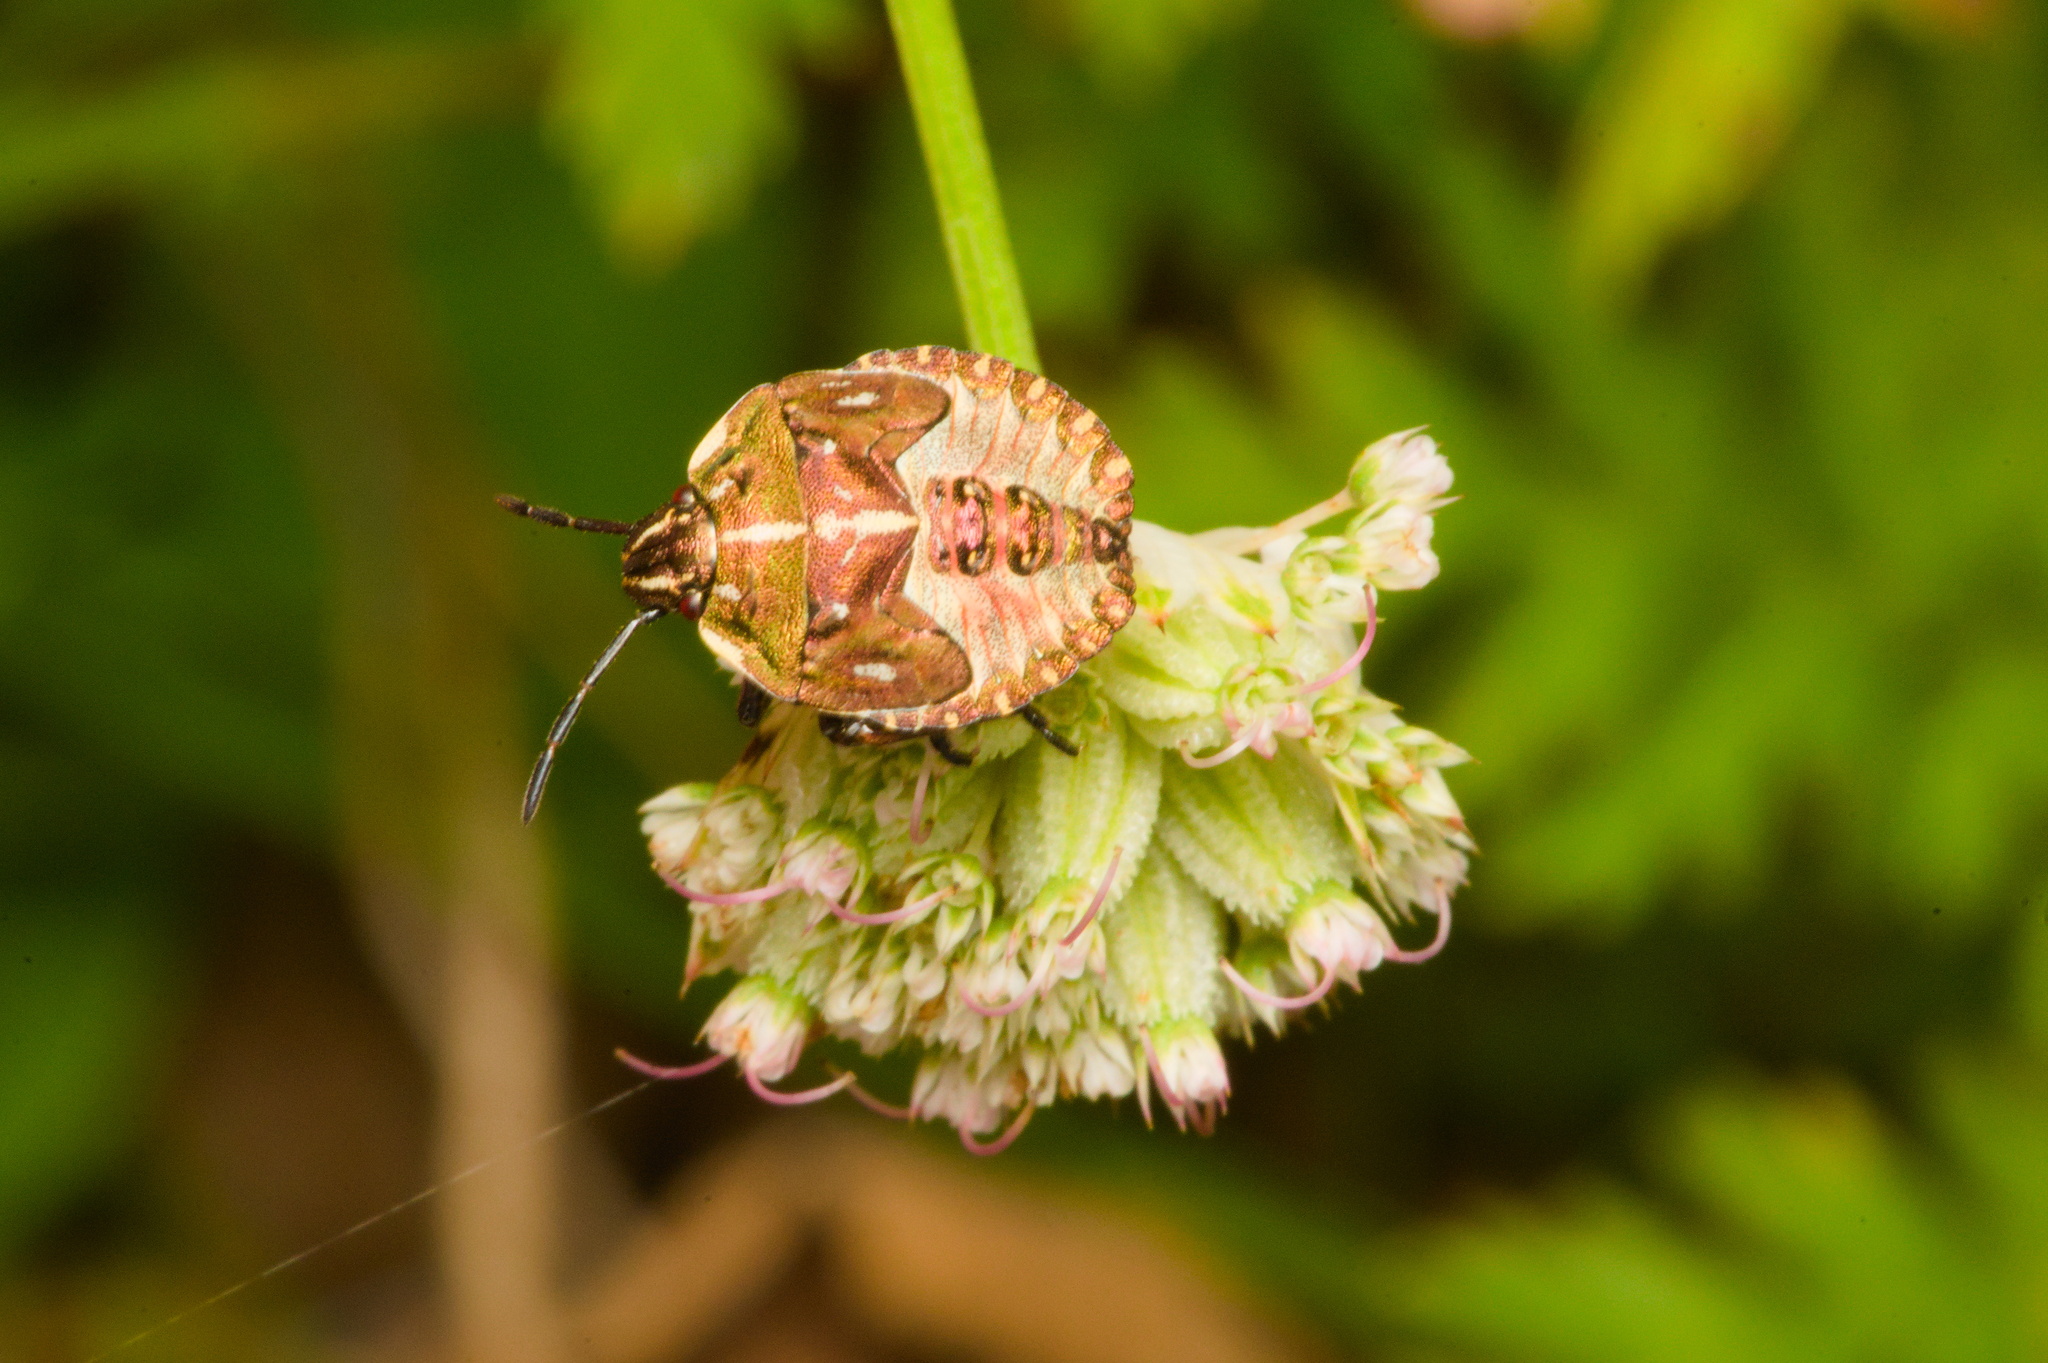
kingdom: Animalia
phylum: Arthropoda
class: Insecta
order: Hemiptera
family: Pentatomidae
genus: Carpocoris
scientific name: Carpocoris purpureipennis
